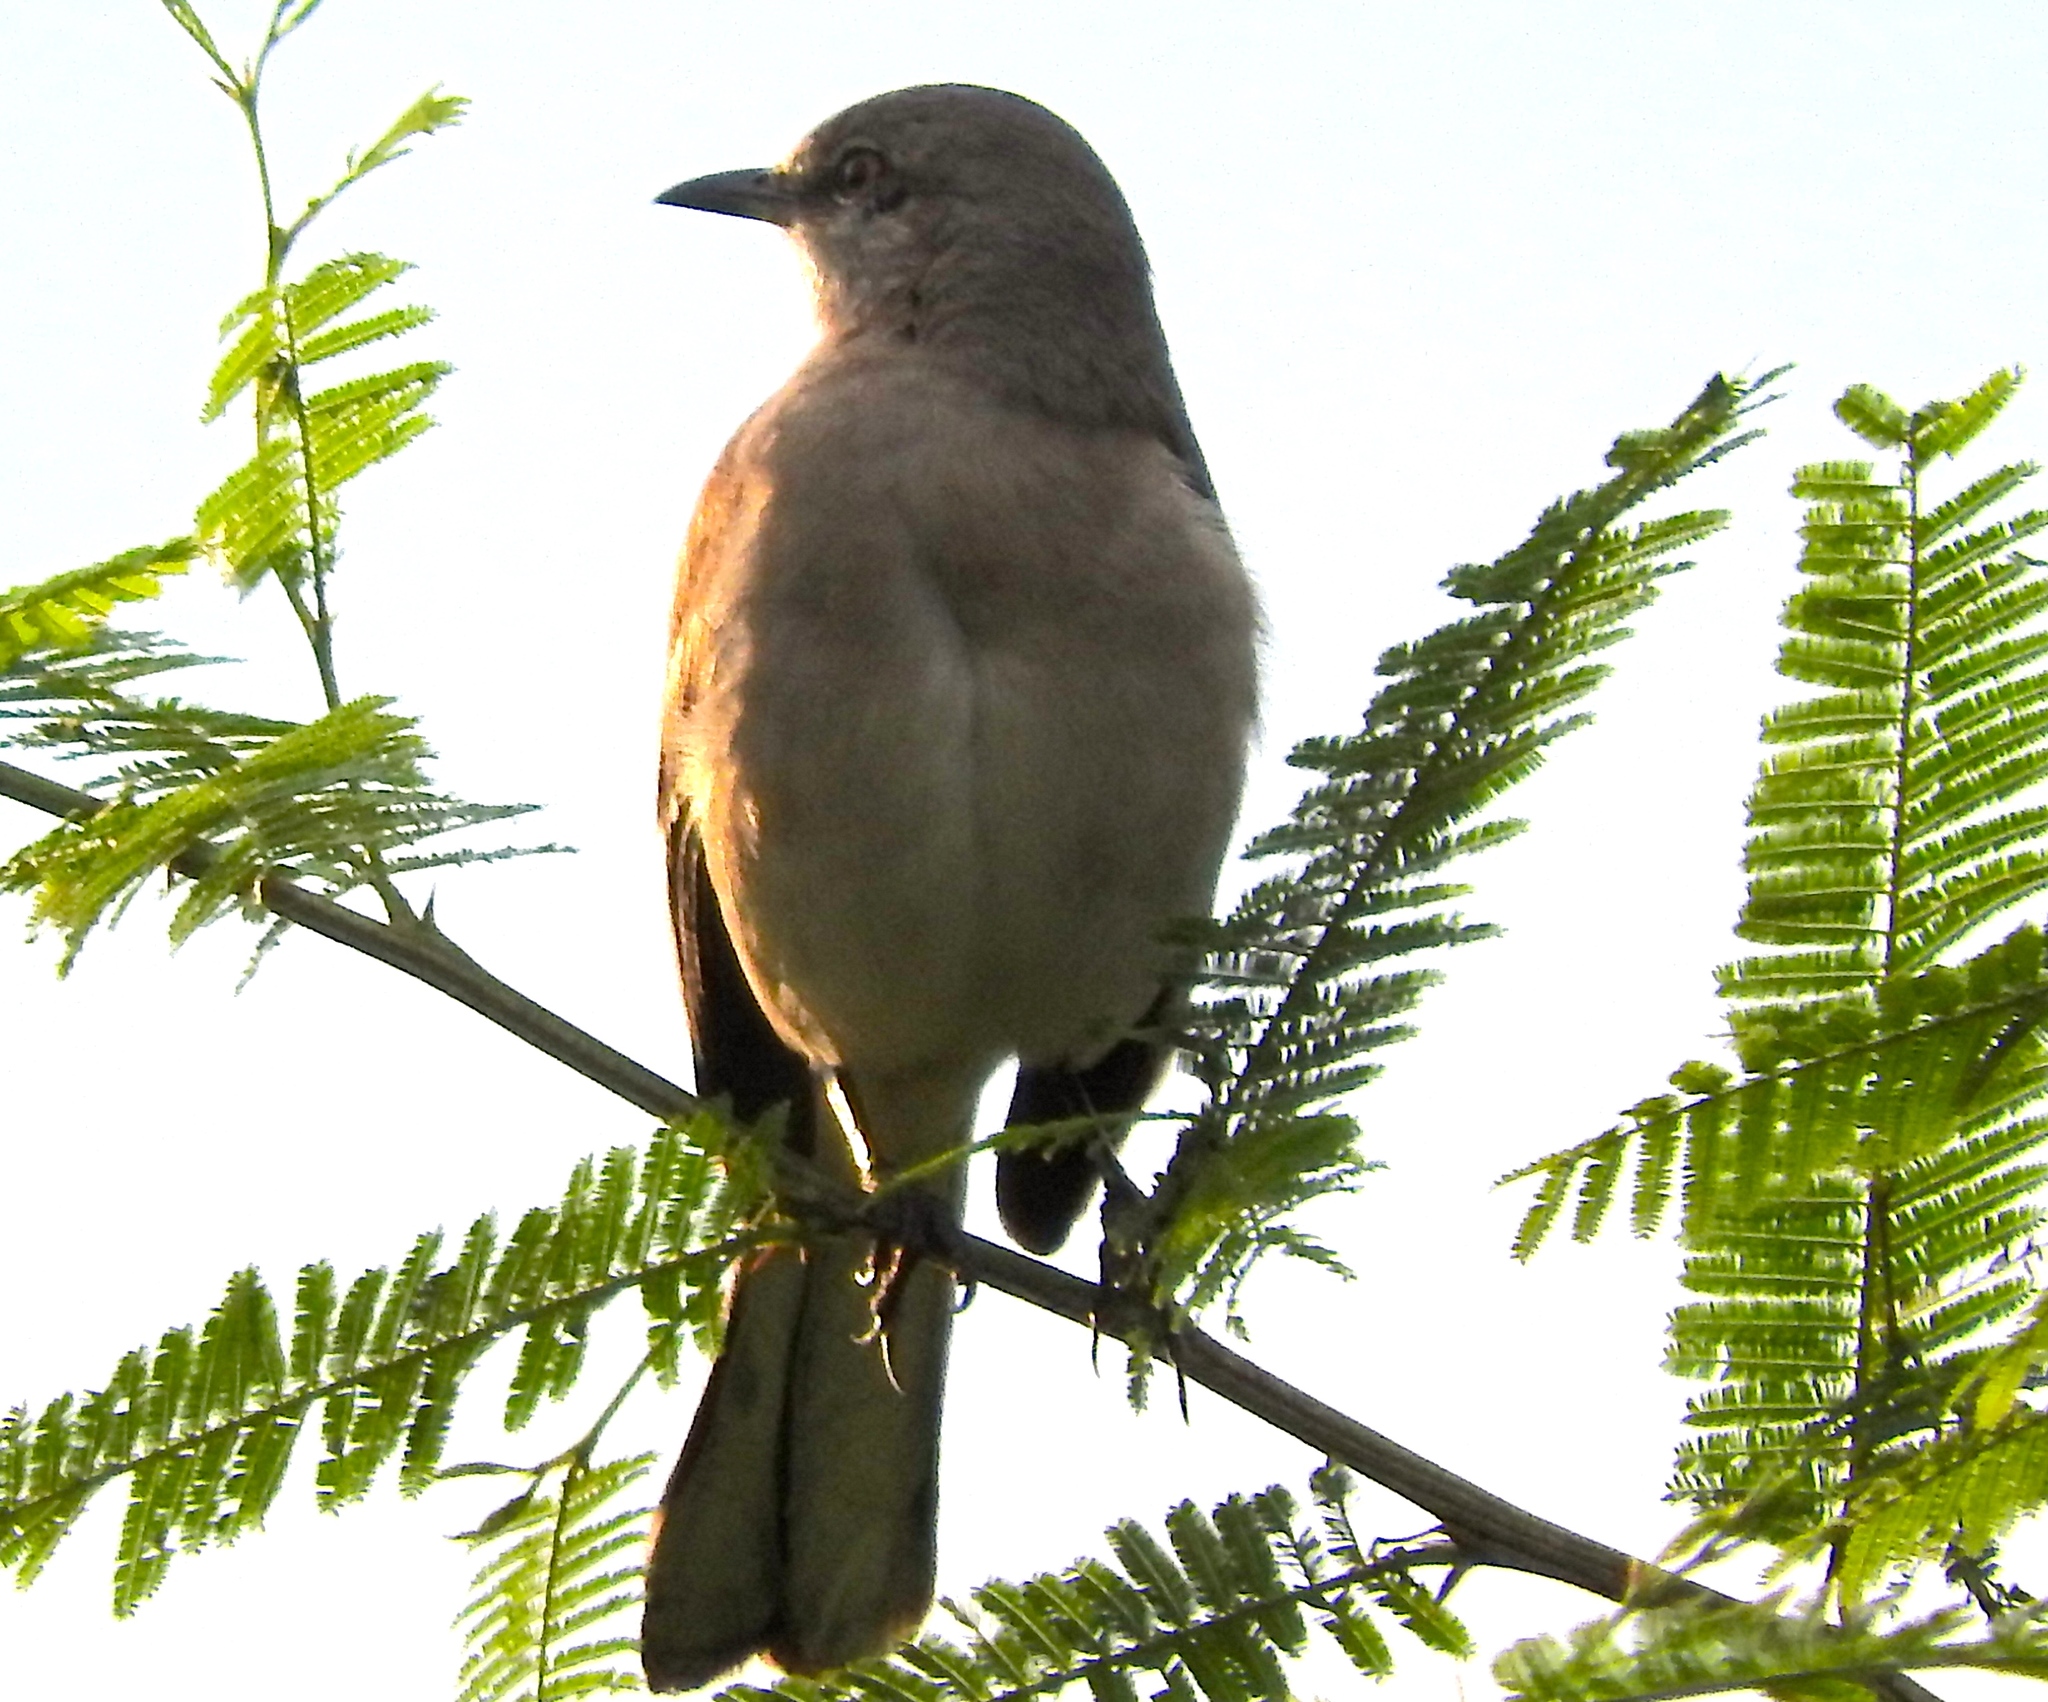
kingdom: Animalia
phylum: Chordata
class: Aves
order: Passeriformes
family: Mimidae
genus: Mimus
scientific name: Mimus polyglottos
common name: Northern mockingbird
